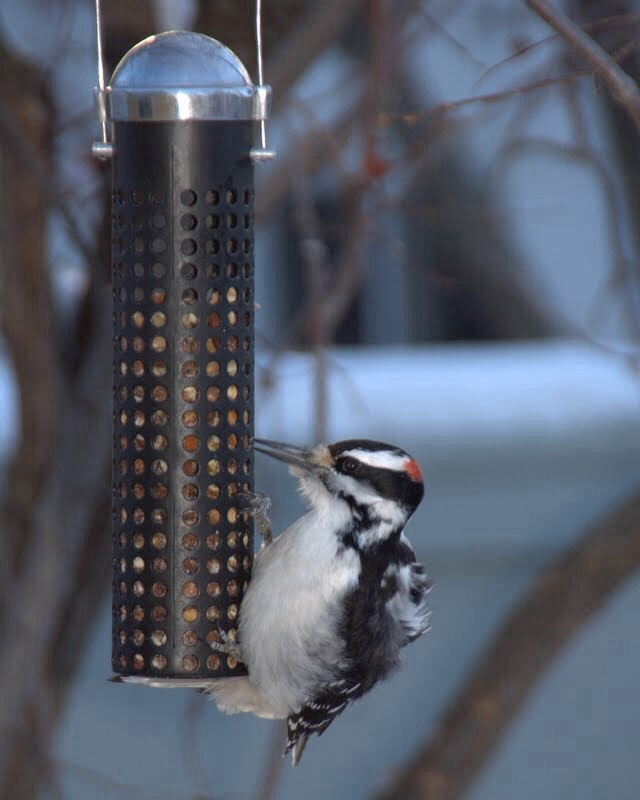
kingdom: Animalia
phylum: Chordata
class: Aves
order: Piciformes
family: Picidae
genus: Leuconotopicus
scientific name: Leuconotopicus villosus
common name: Hairy woodpecker
